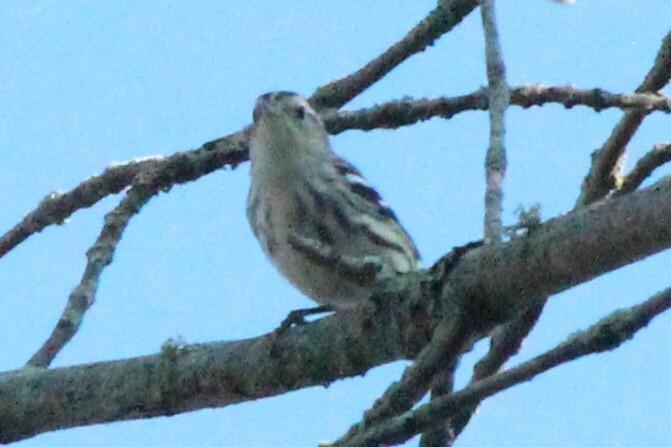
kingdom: Animalia
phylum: Chordata
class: Aves
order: Passeriformes
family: Parulidae
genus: Mniotilta
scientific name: Mniotilta varia
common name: Black-and-white warbler
